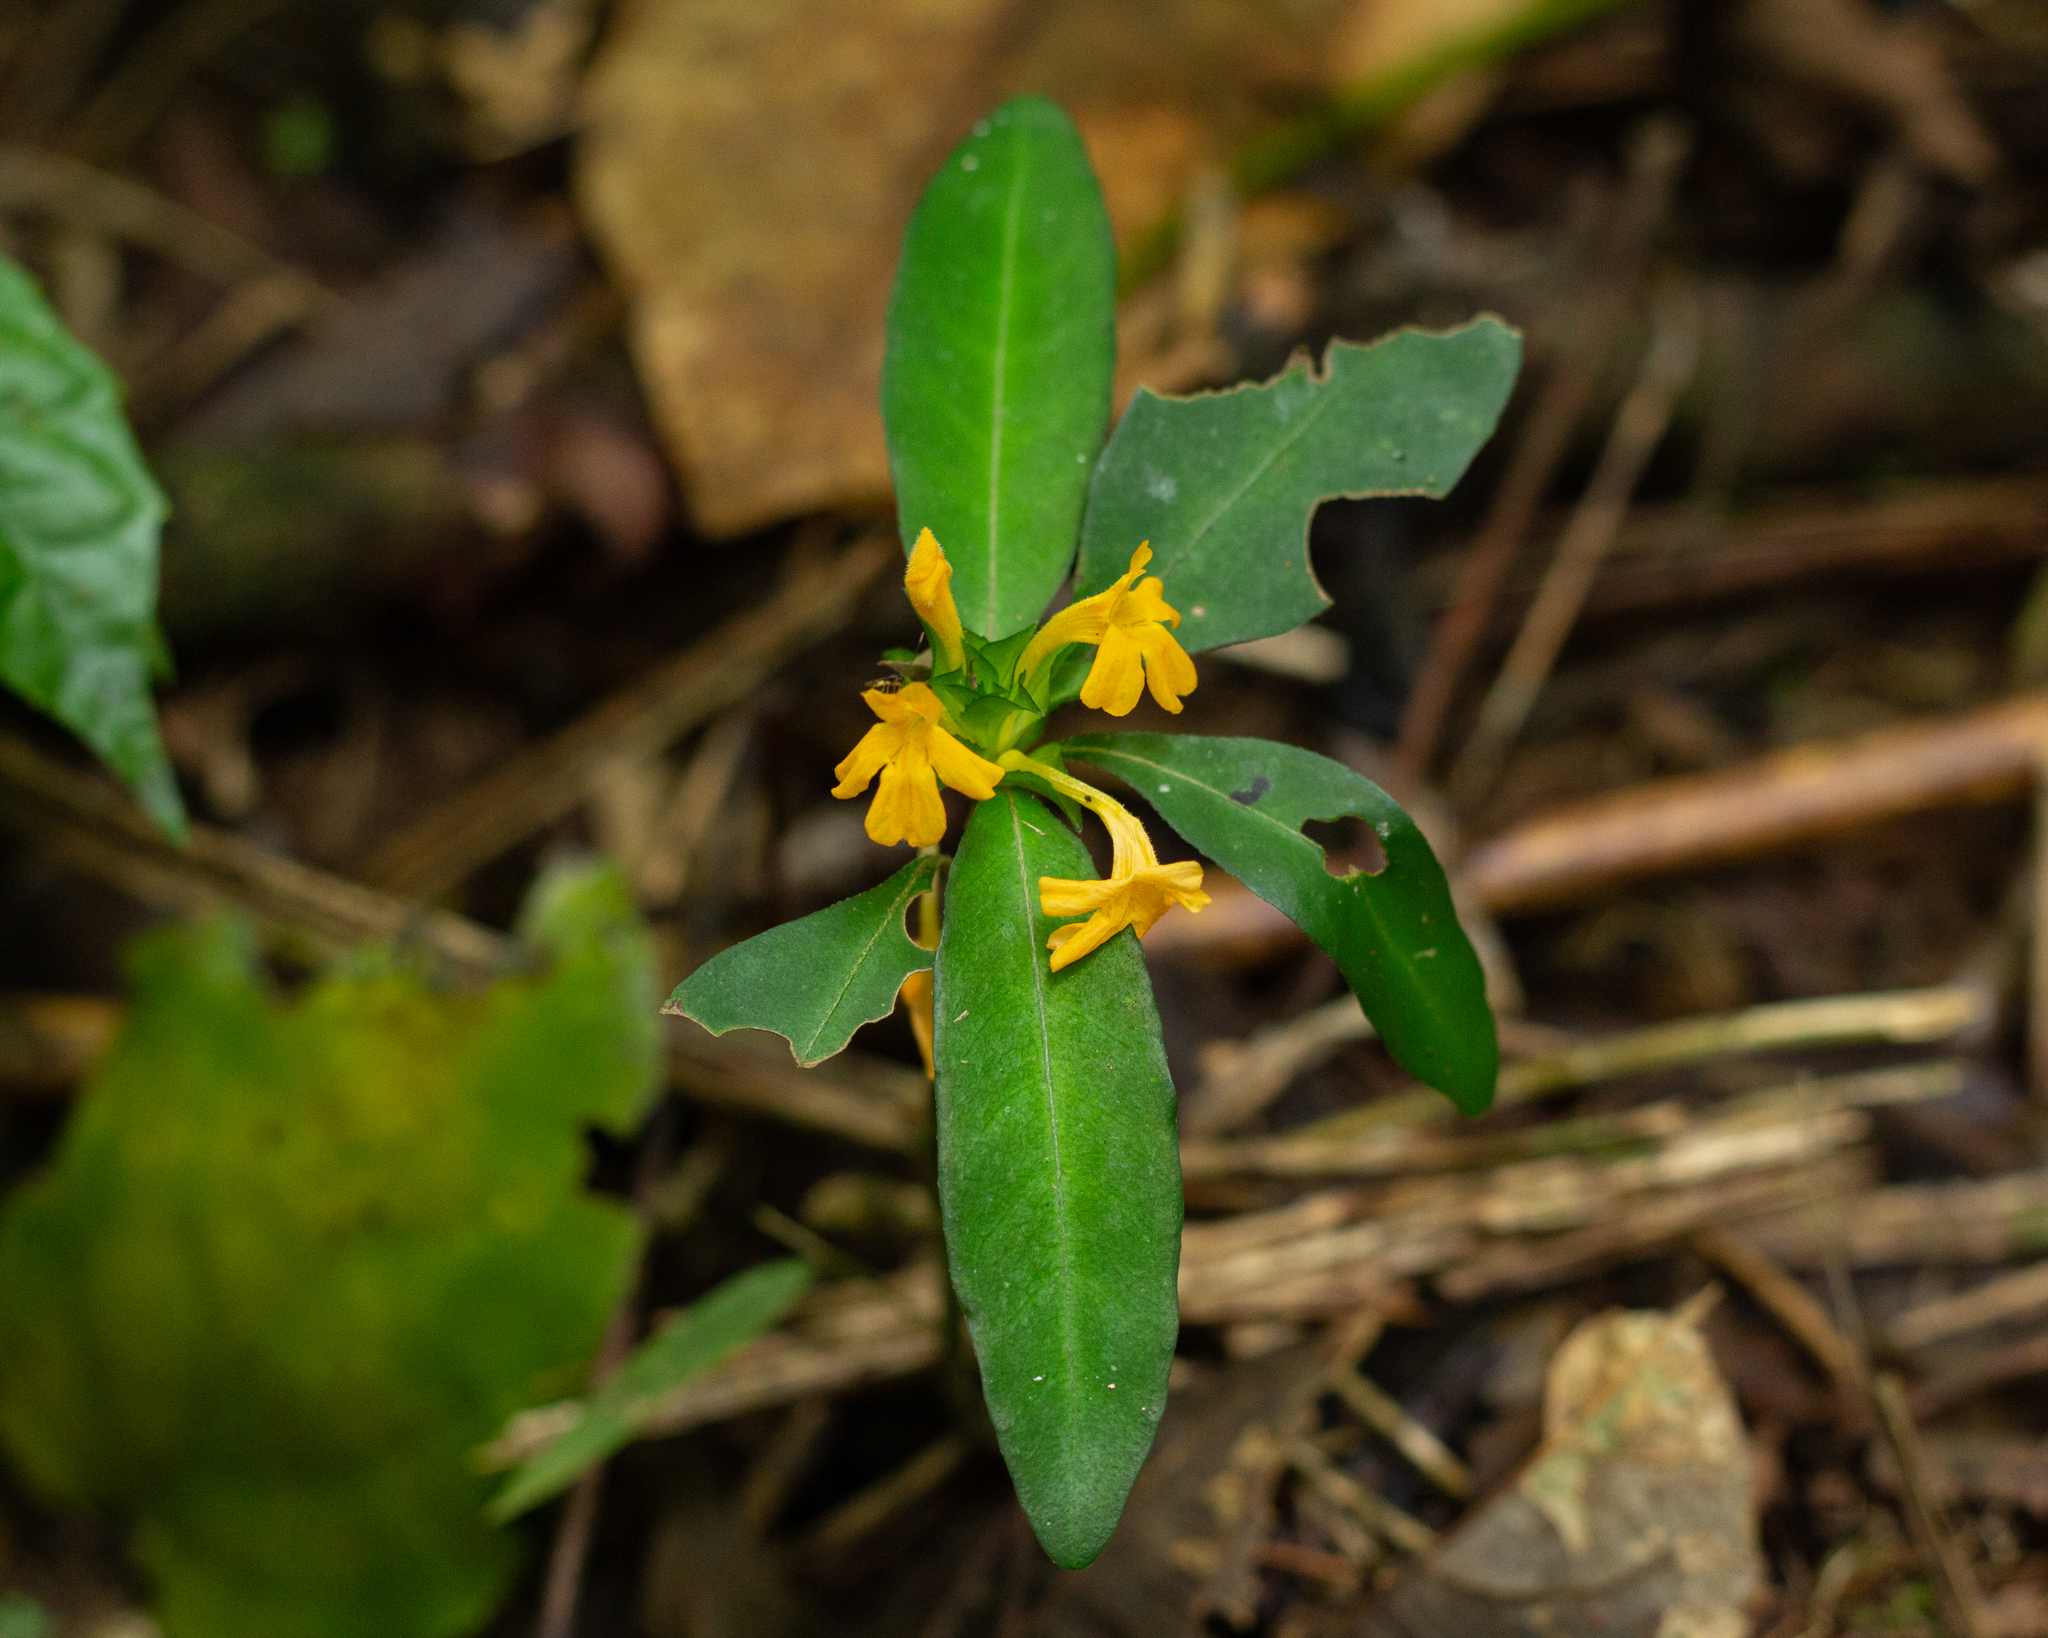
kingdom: Plantae
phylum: Tracheophyta
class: Magnoliopsida
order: Lamiales
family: Acanthaceae
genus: Aphelandra
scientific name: Aphelandra ornata
